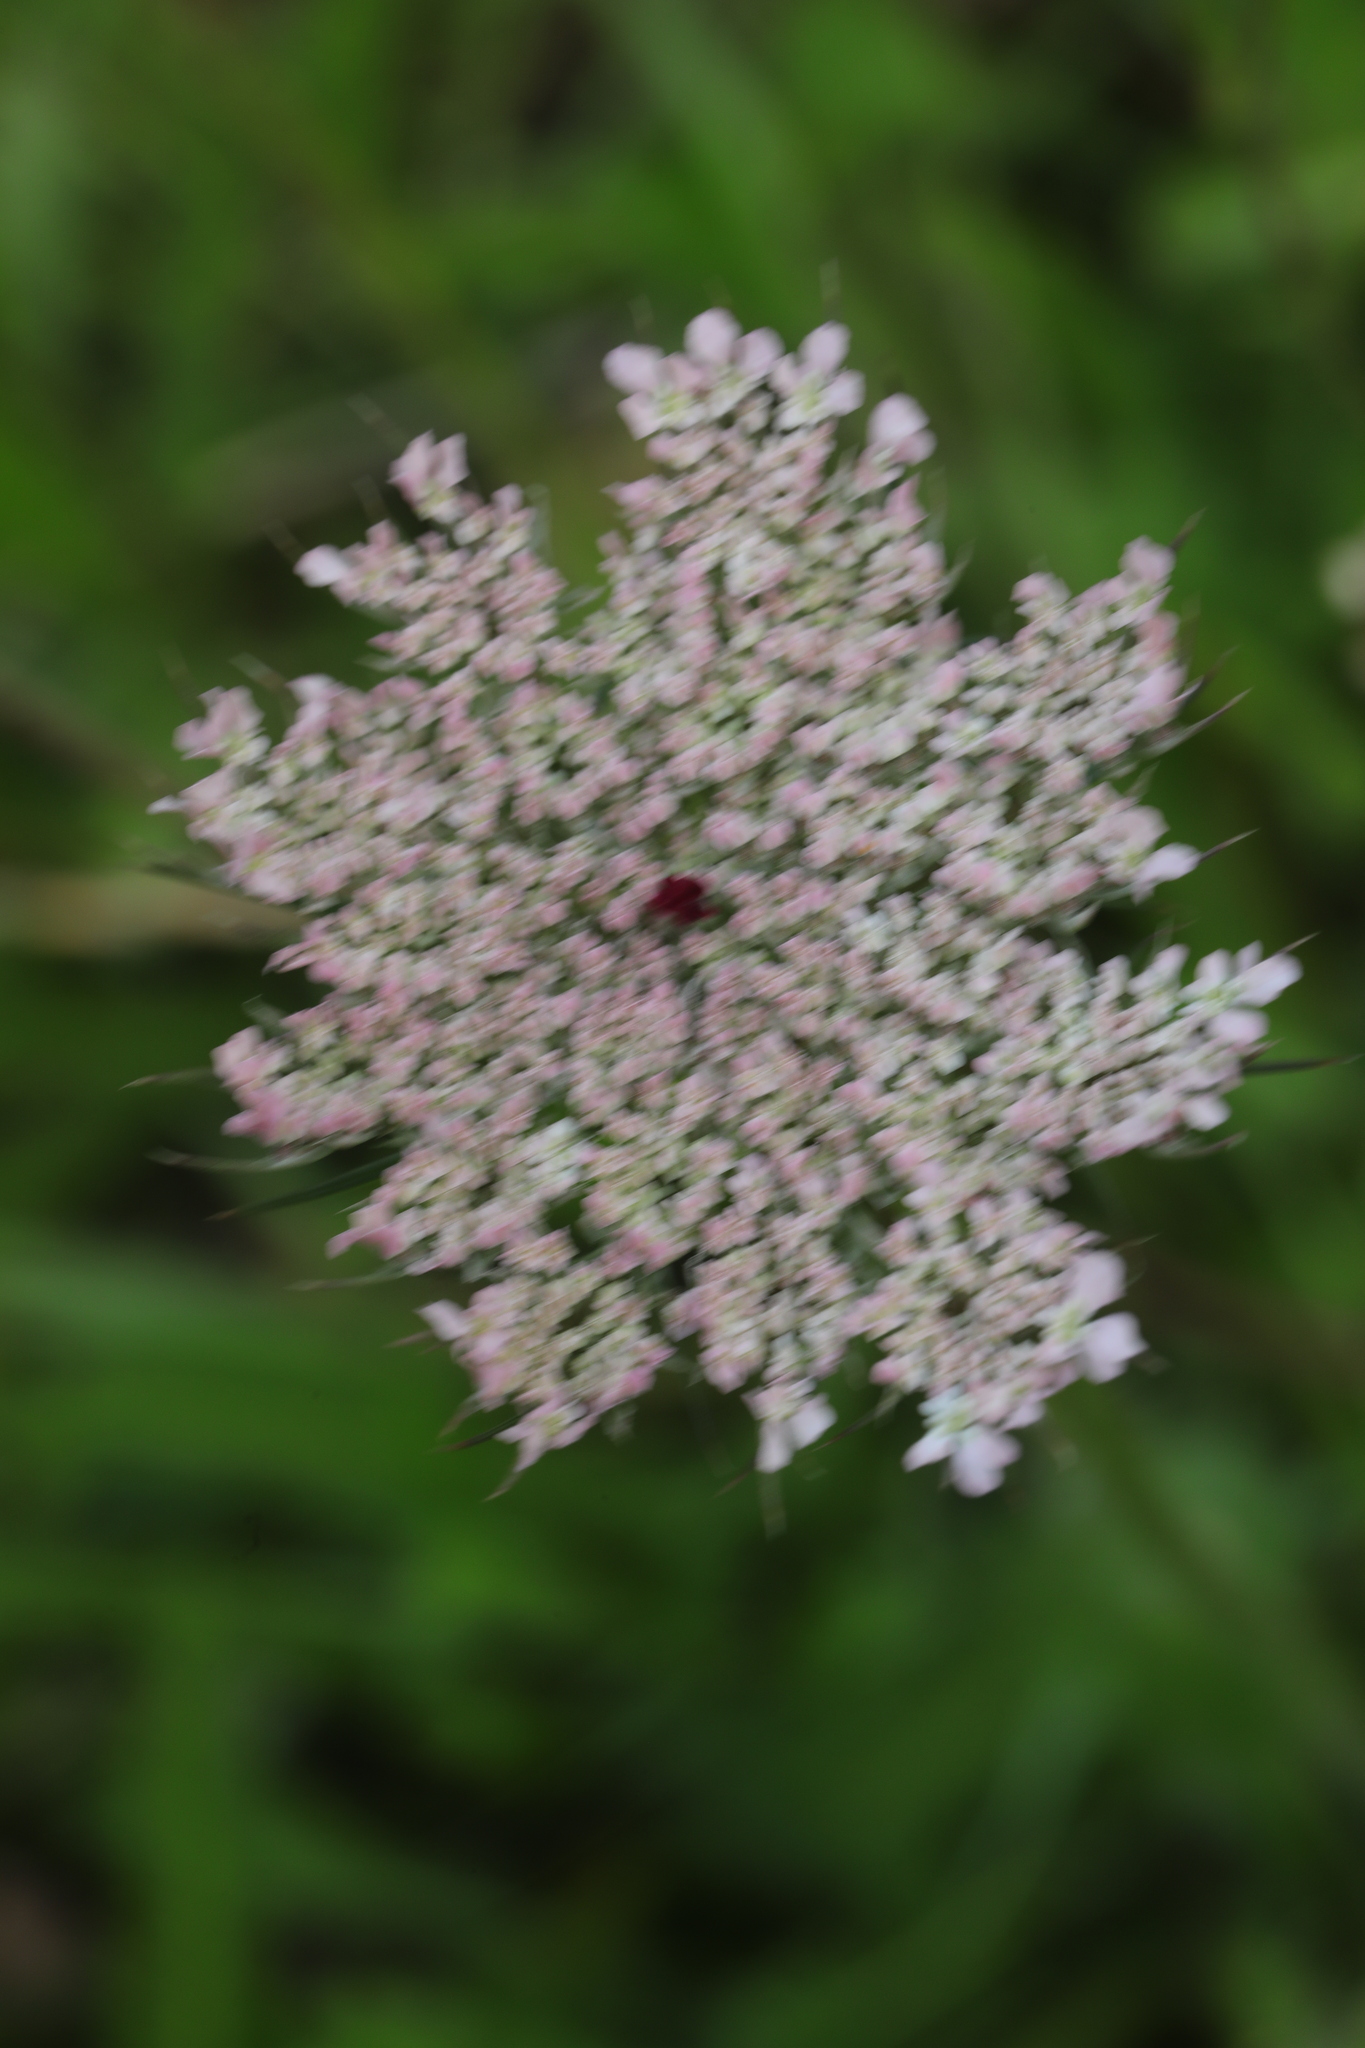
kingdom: Plantae
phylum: Tracheophyta
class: Magnoliopsida
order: Apiales
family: Apiaceae
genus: Daucus
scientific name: Daucus carota
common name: Wild carrot
